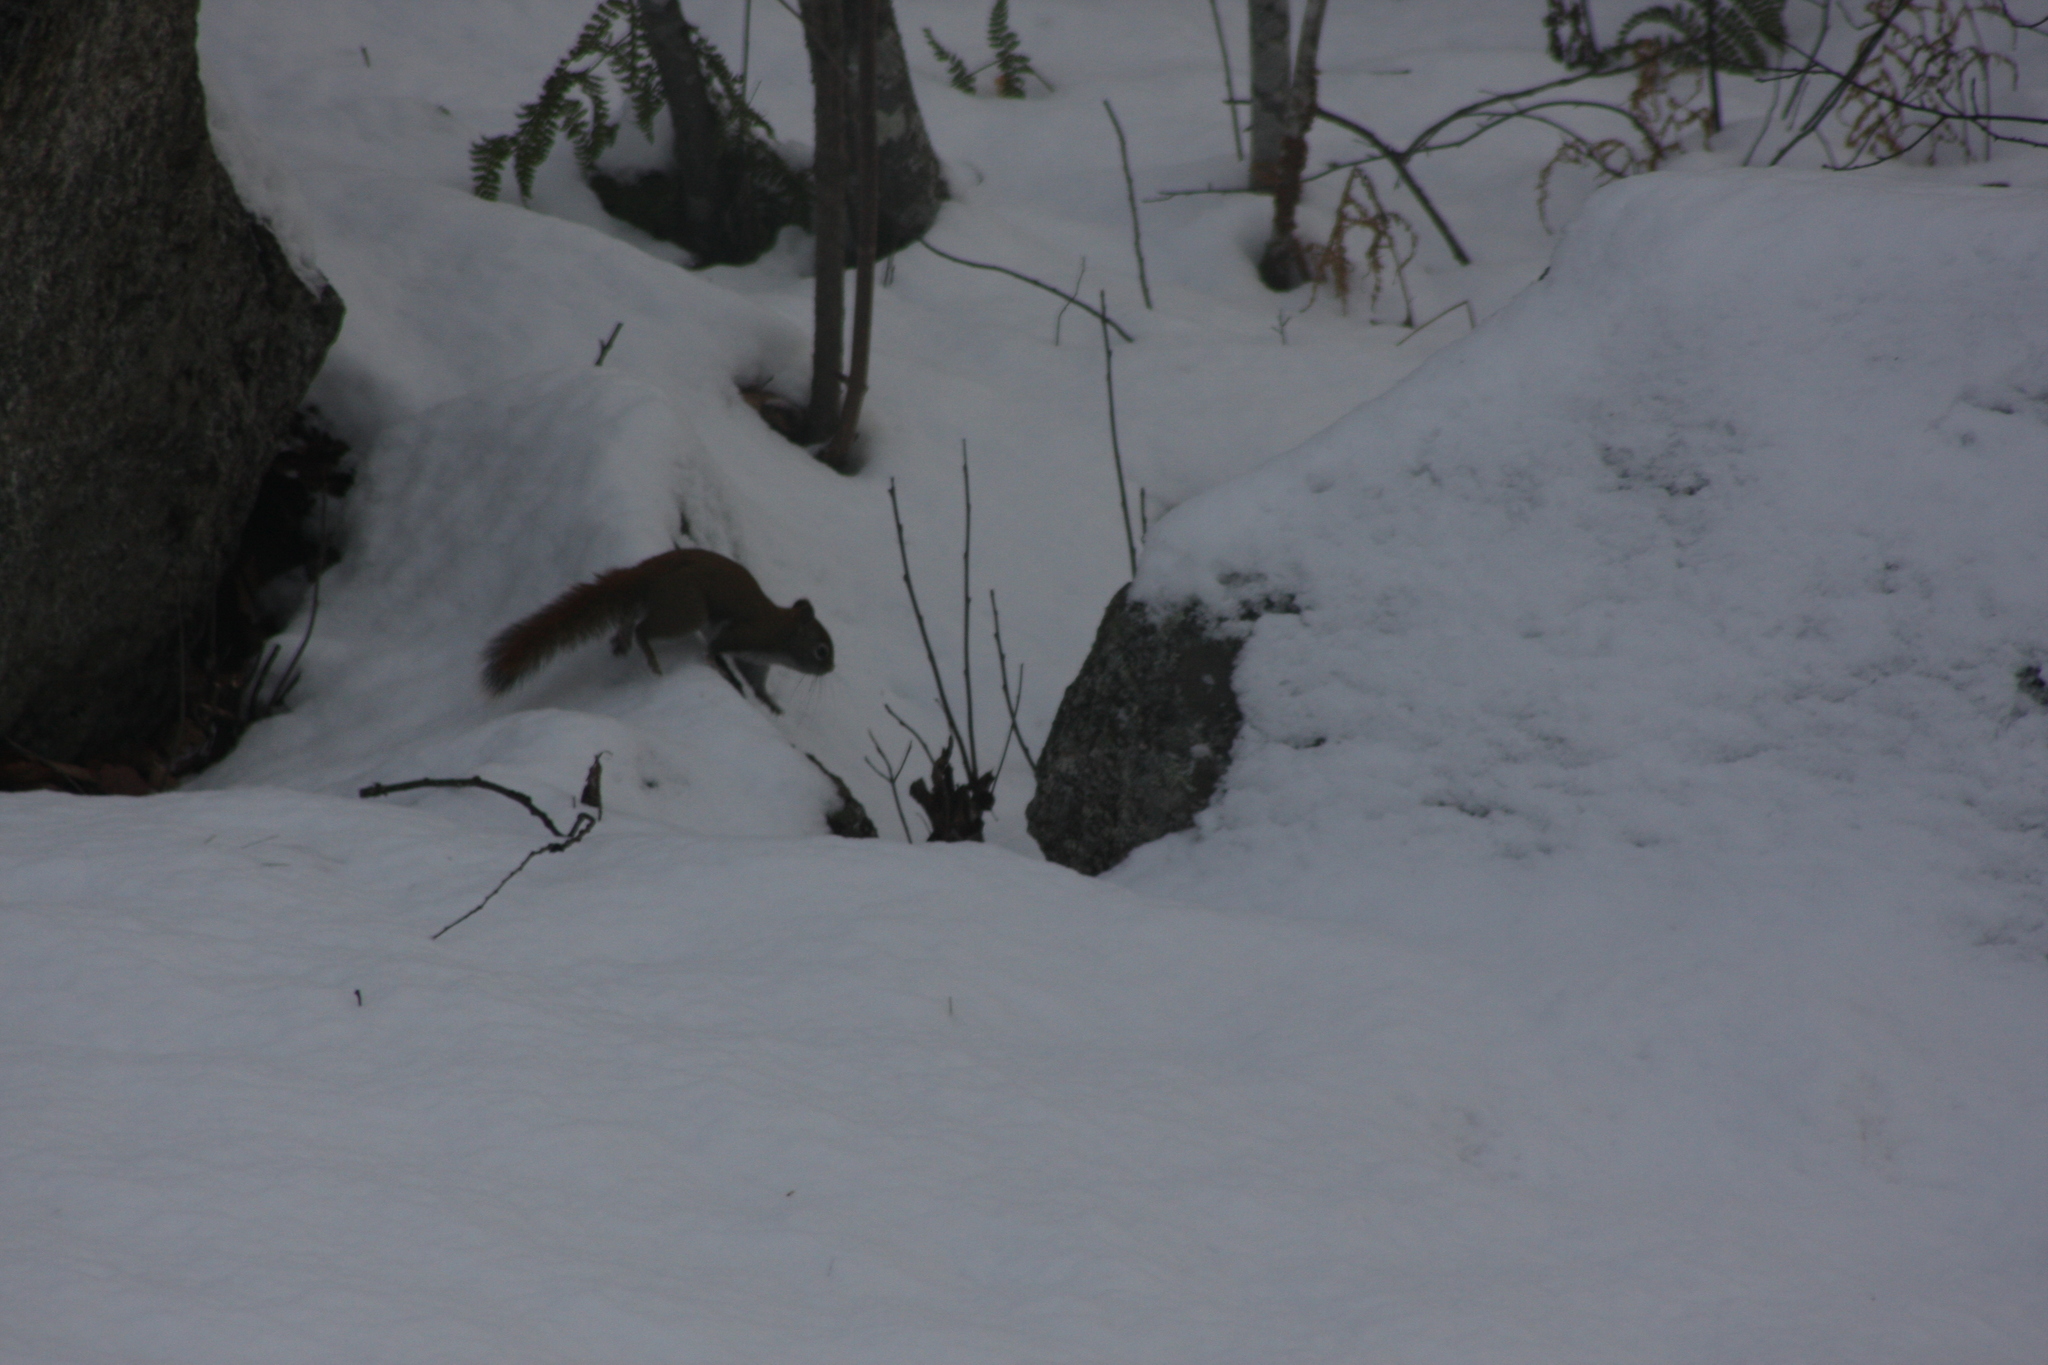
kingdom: Animalia
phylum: Chordata
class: Mammalia
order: Rodentia
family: Sciuridae
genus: Tamiasciurus
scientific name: Tamiasciurus hudsonicus
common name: Red squirrel
